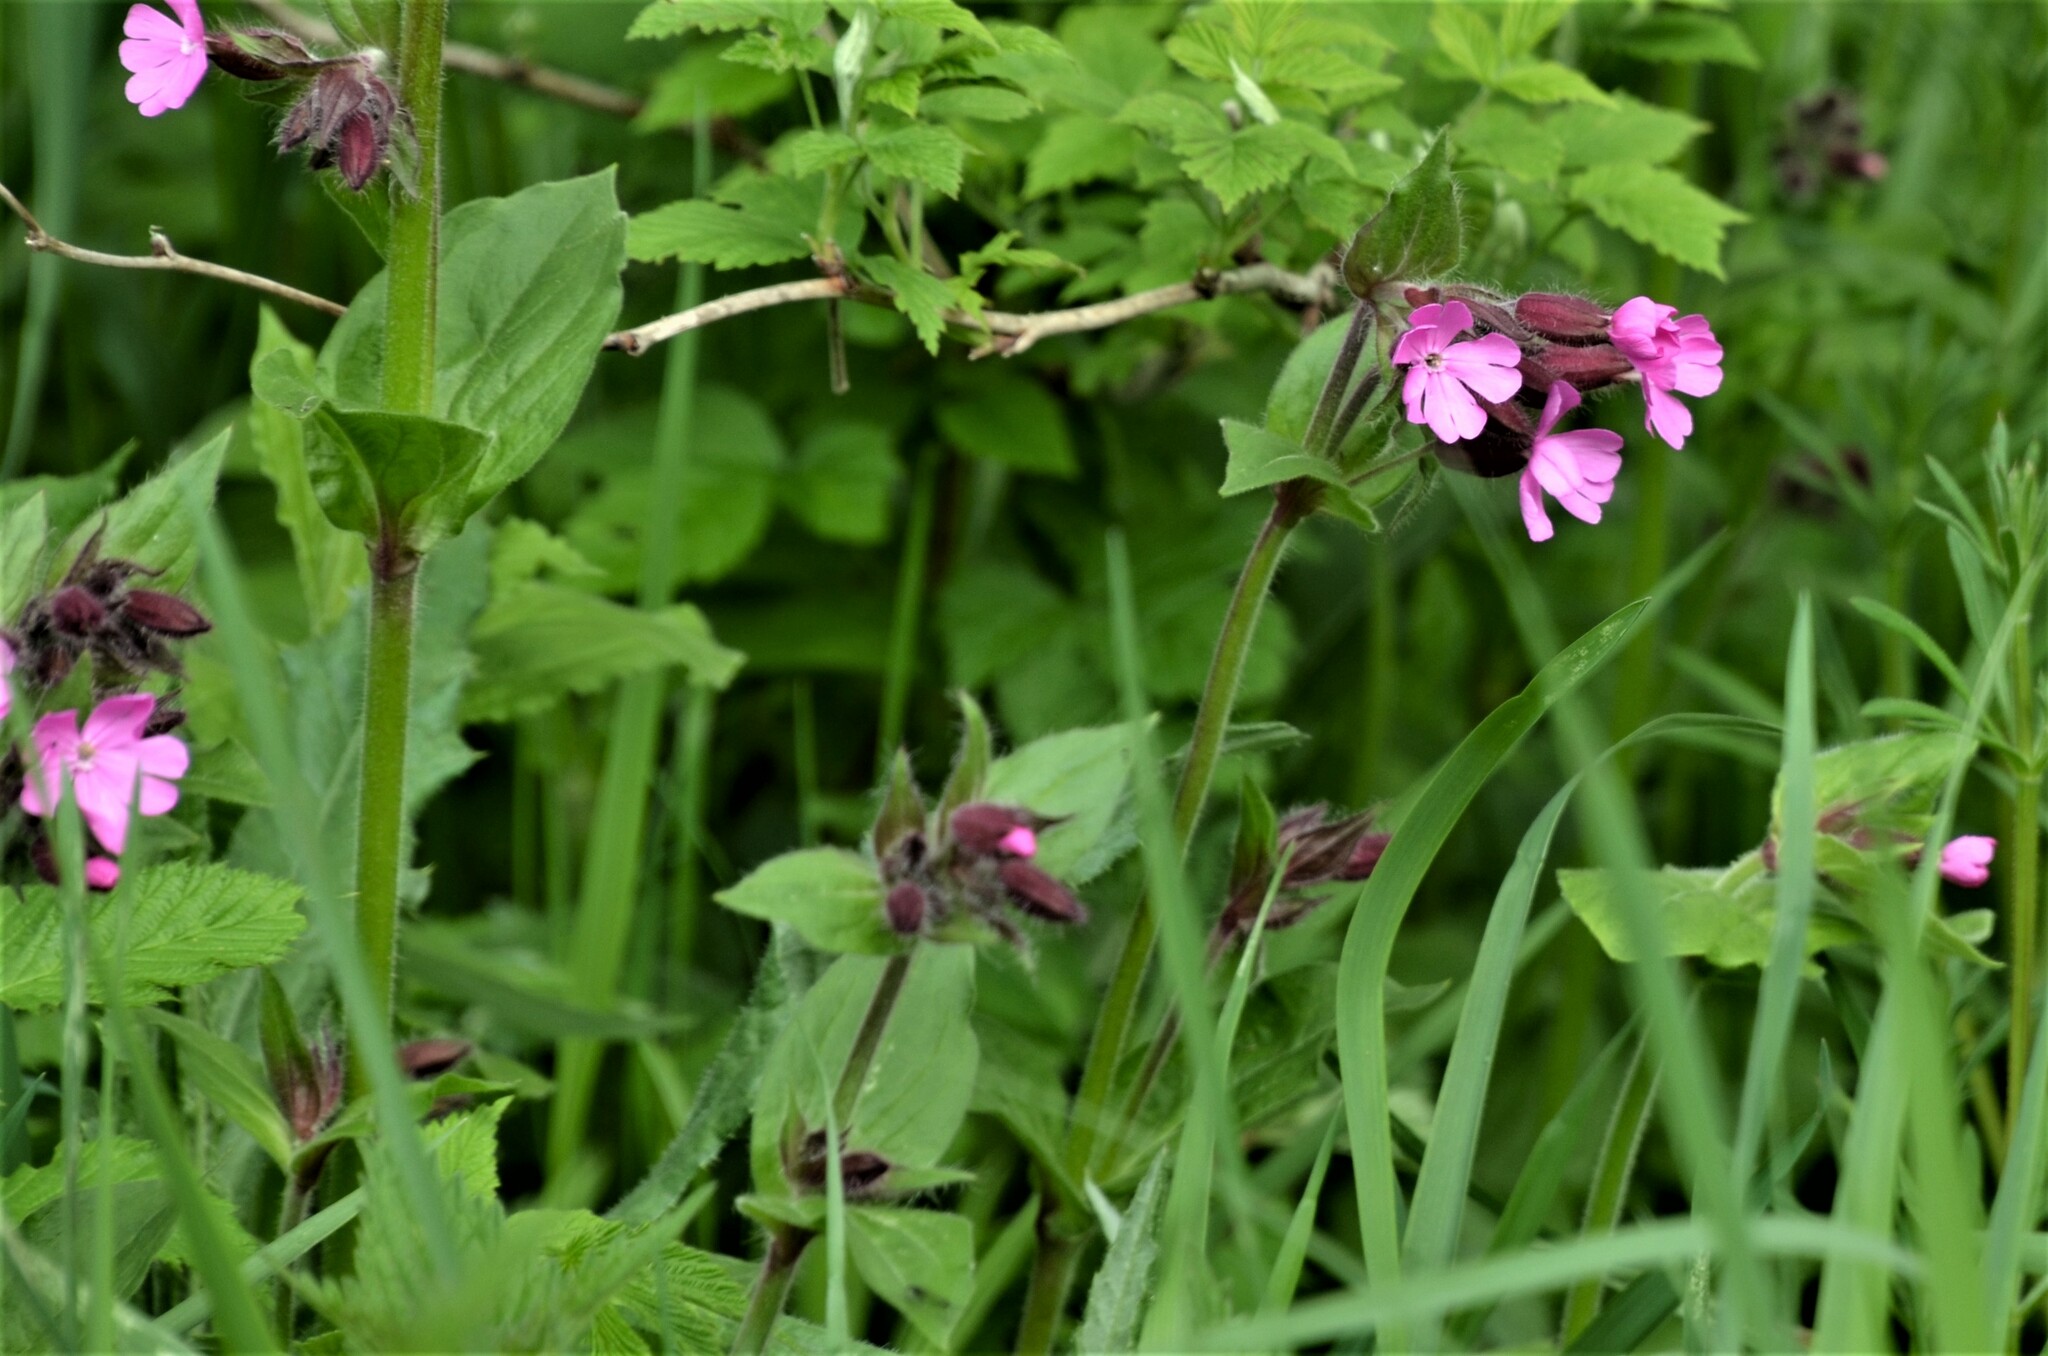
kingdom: Plantae
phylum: Tracheophyta
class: Magnoliopsida
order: Caryophyllales
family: Caryophyllaceae
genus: Silene
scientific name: Silene dioica
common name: Red campion
